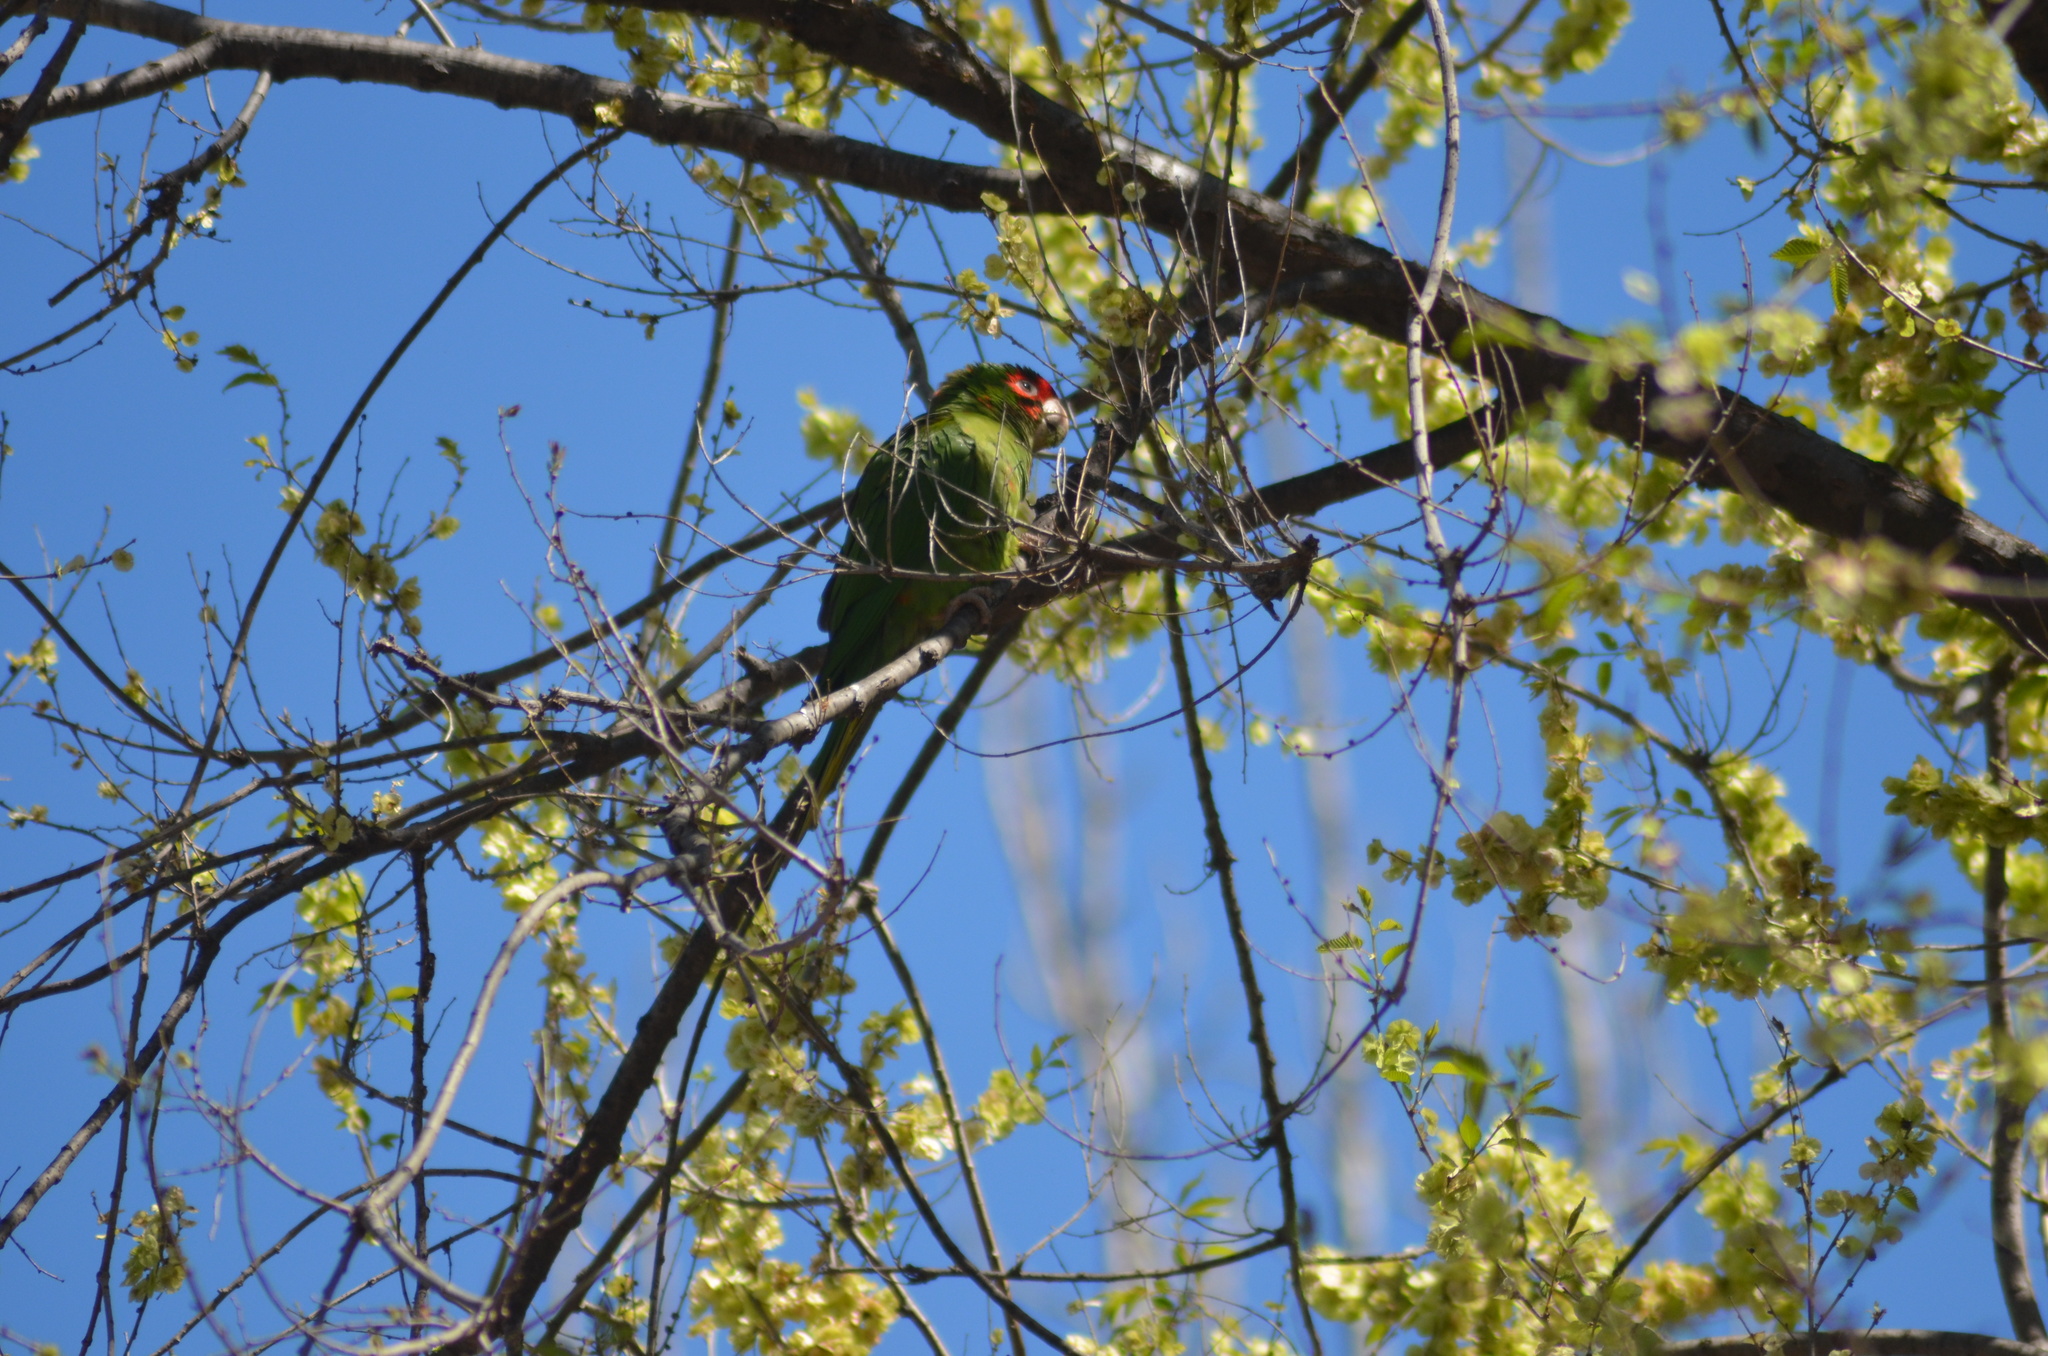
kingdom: Animalia
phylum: Chordata
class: Aves
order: Psittaciformes
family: Psittacidae
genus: Aratinga
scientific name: Aratinga mitrata
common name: Mitred parakeet
